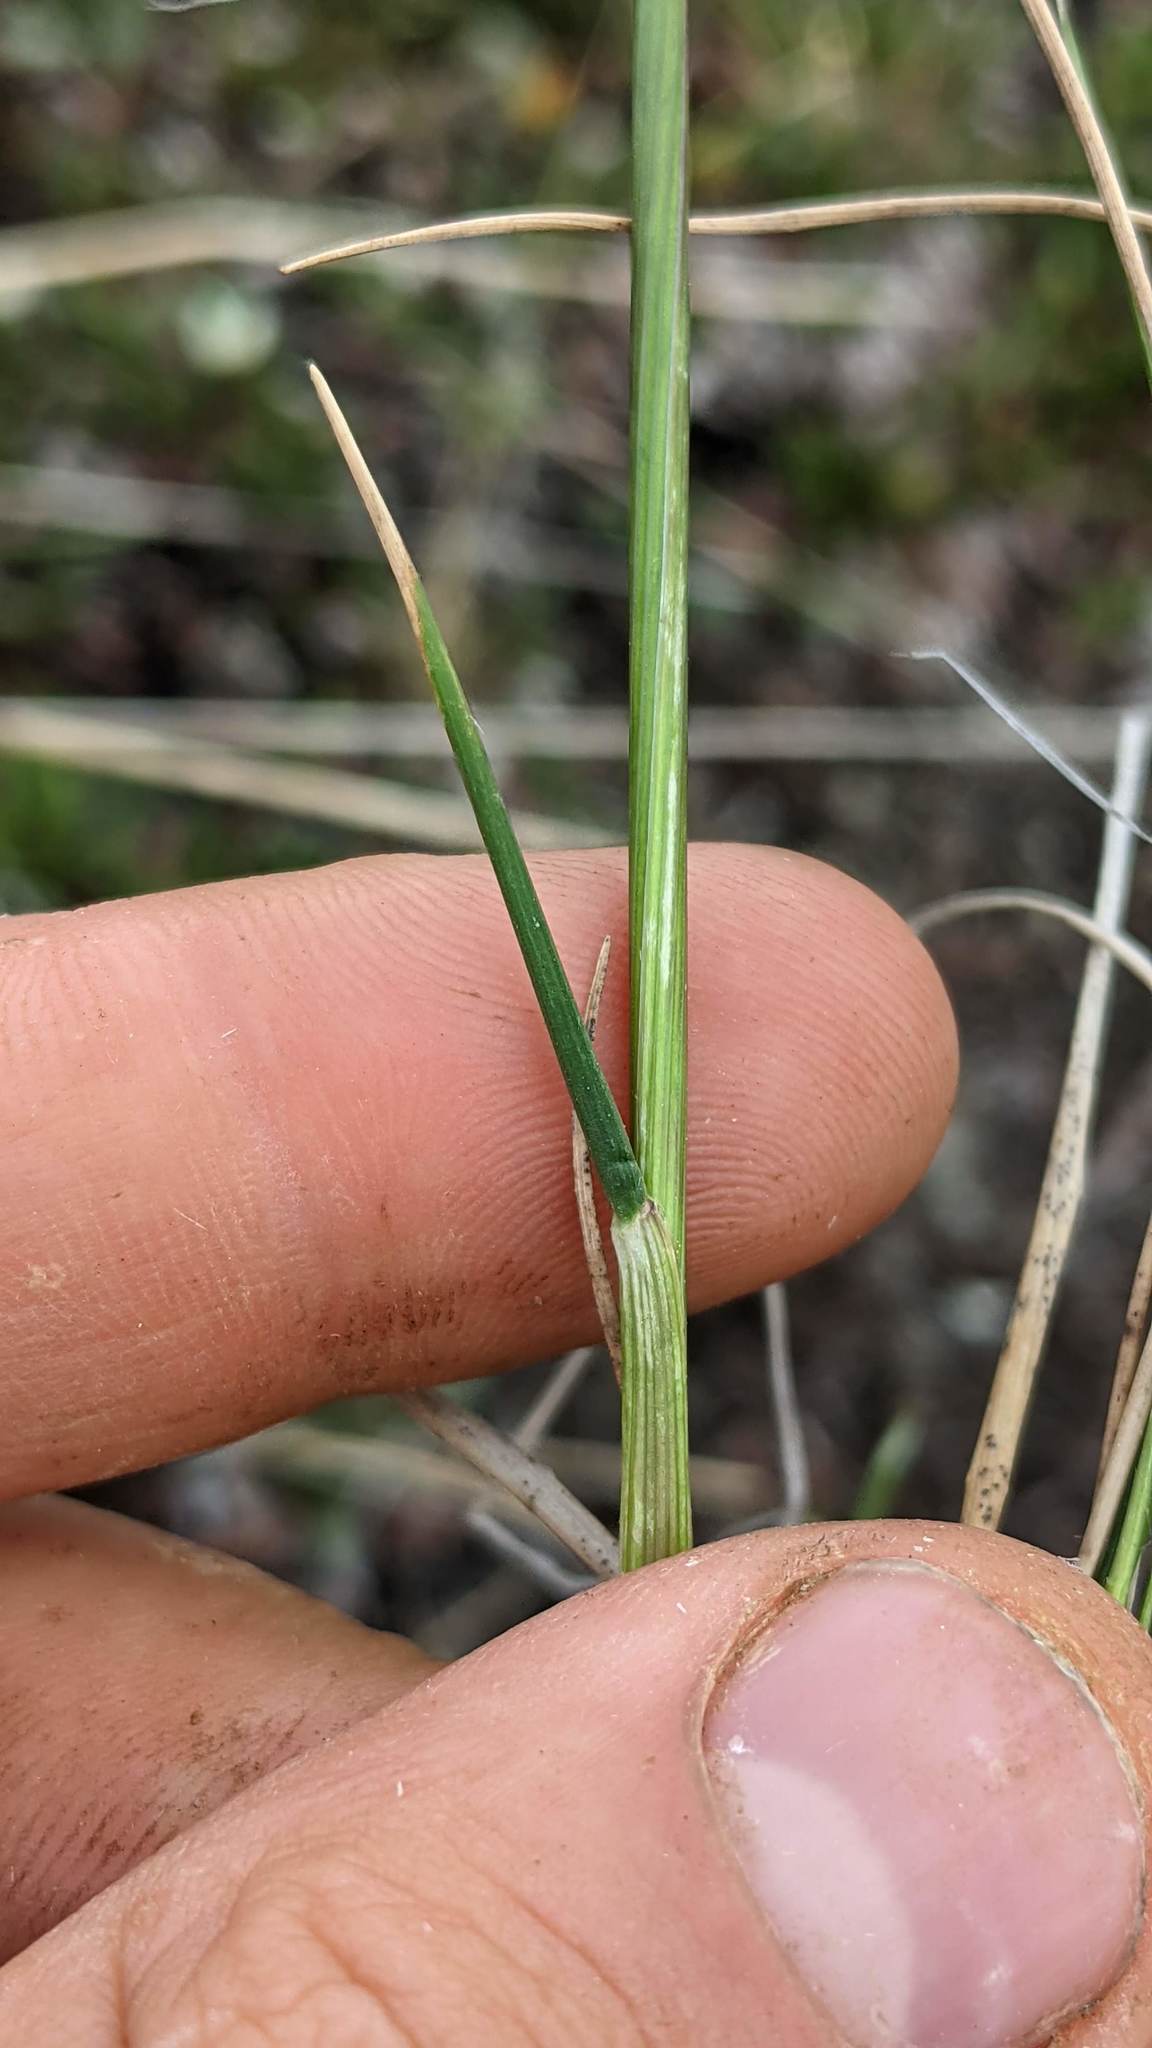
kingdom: Plantae
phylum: Tracheophyta
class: Liliopsida
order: Poales
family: Poaceae
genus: Festuca
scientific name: Festuca altaica
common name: Northern rough fescue
